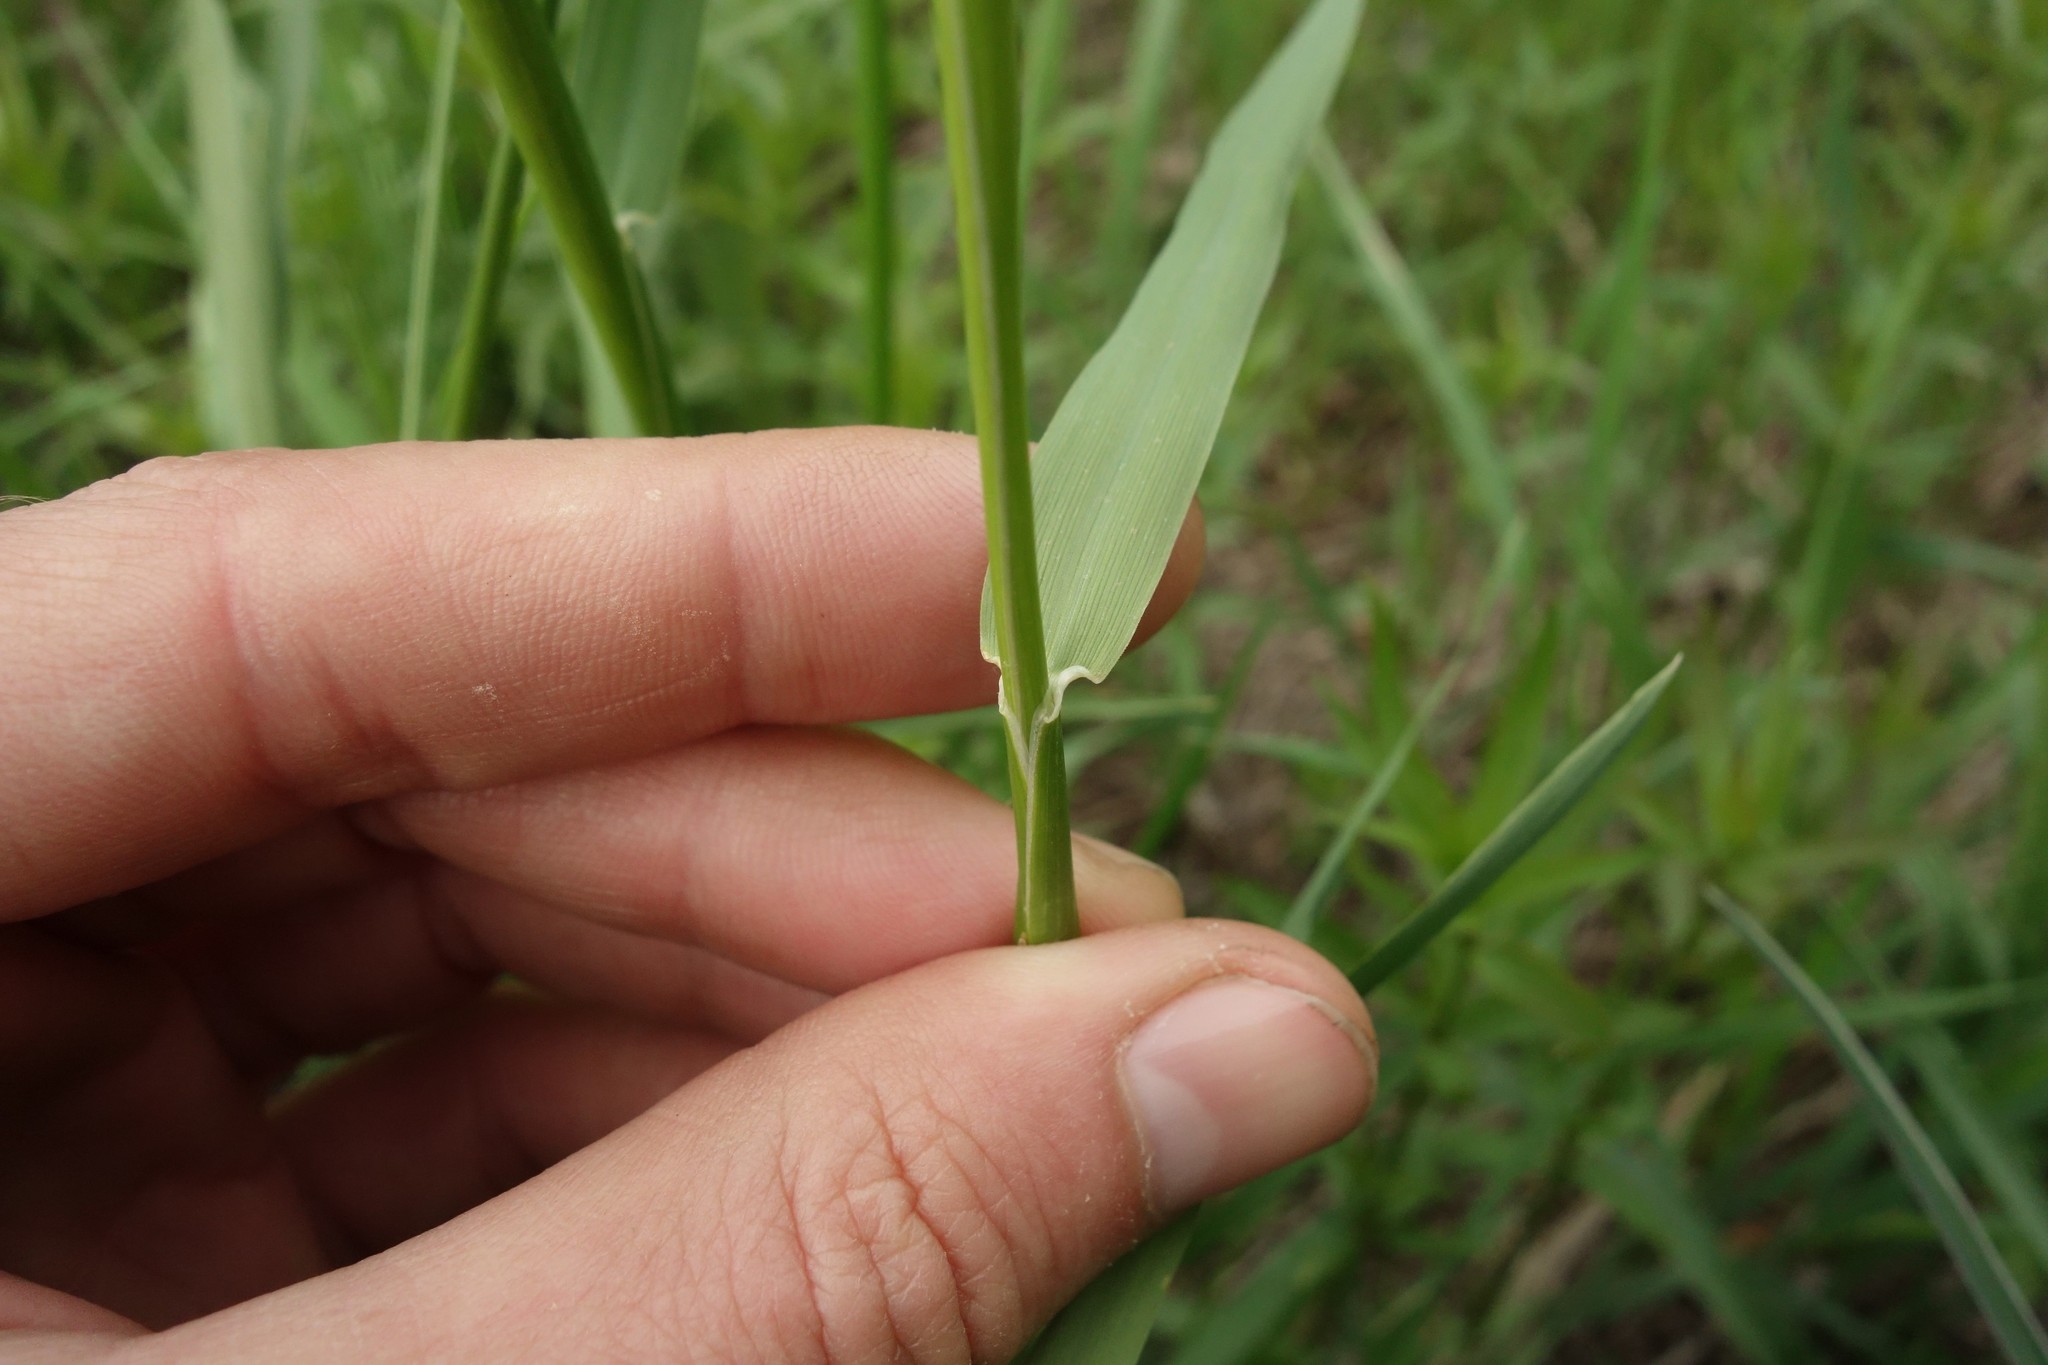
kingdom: Plantae
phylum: Tracheophyta
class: Liliopsida
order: Poales
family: Poaceae
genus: Alopecurus
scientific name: Alopecurus pratensis
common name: Meadow foxtail
